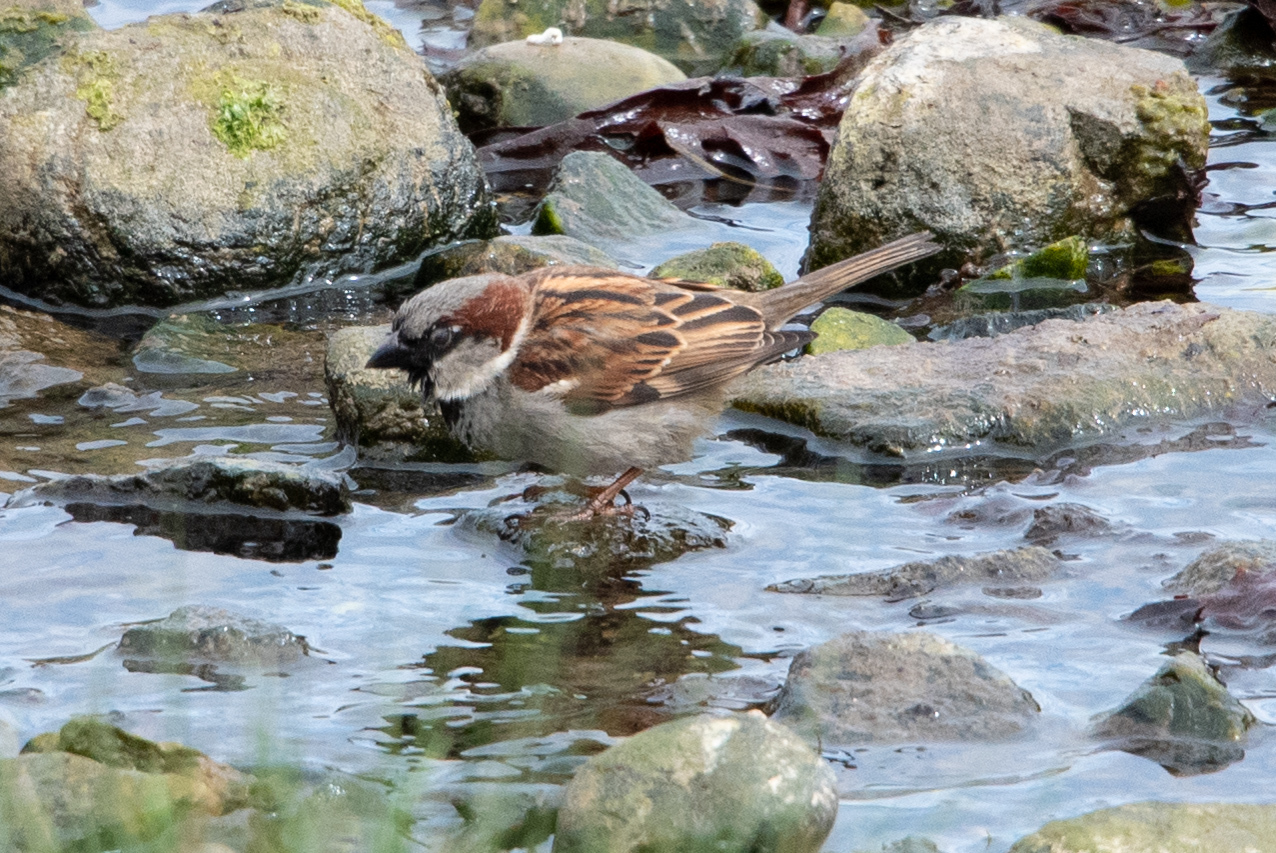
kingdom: Animalia
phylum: Chordata
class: Aves
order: Passeriformes
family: Passeridae
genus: Passer
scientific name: Passer domesticus
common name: House sparrow
